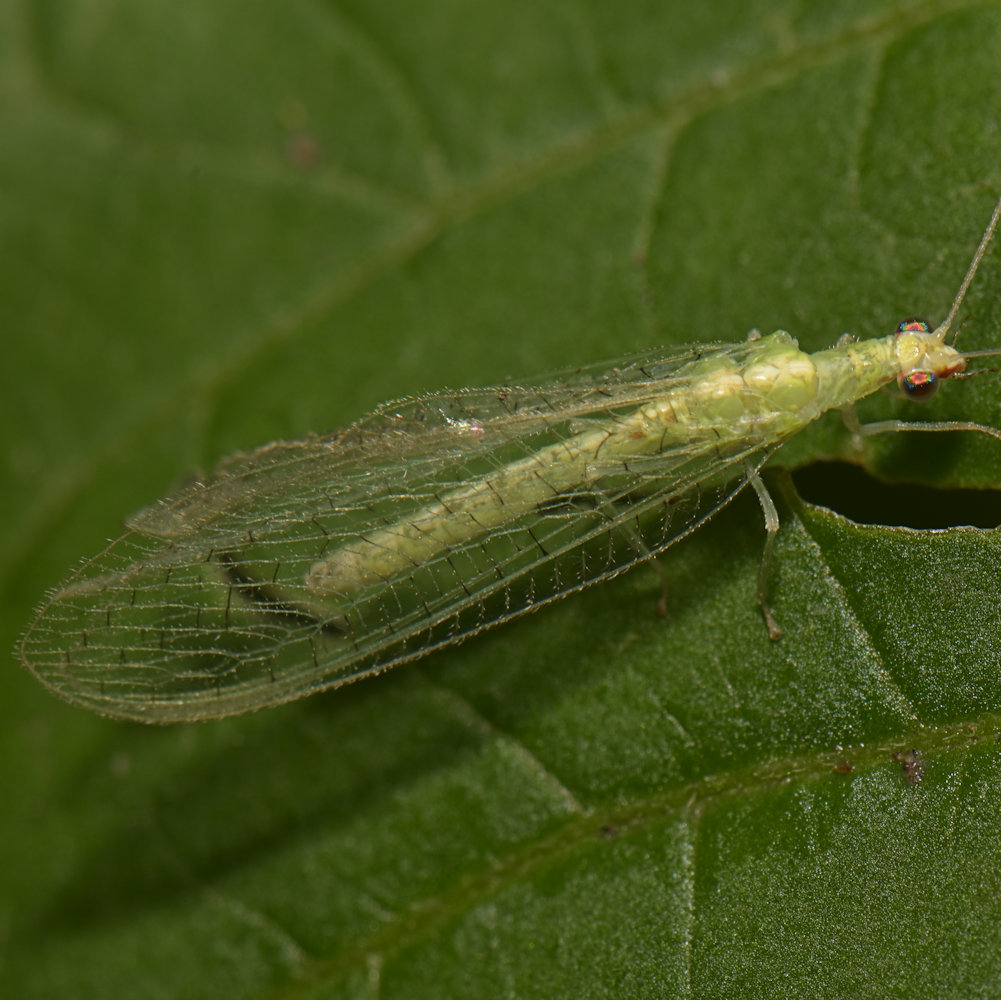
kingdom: Animalia
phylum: Arthropoda
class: Insecta
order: Neuroptera
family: Chrysopidae
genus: Chrysoperla
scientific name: Chrysoperla rufilabris
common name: Red-lipped green lacewing
